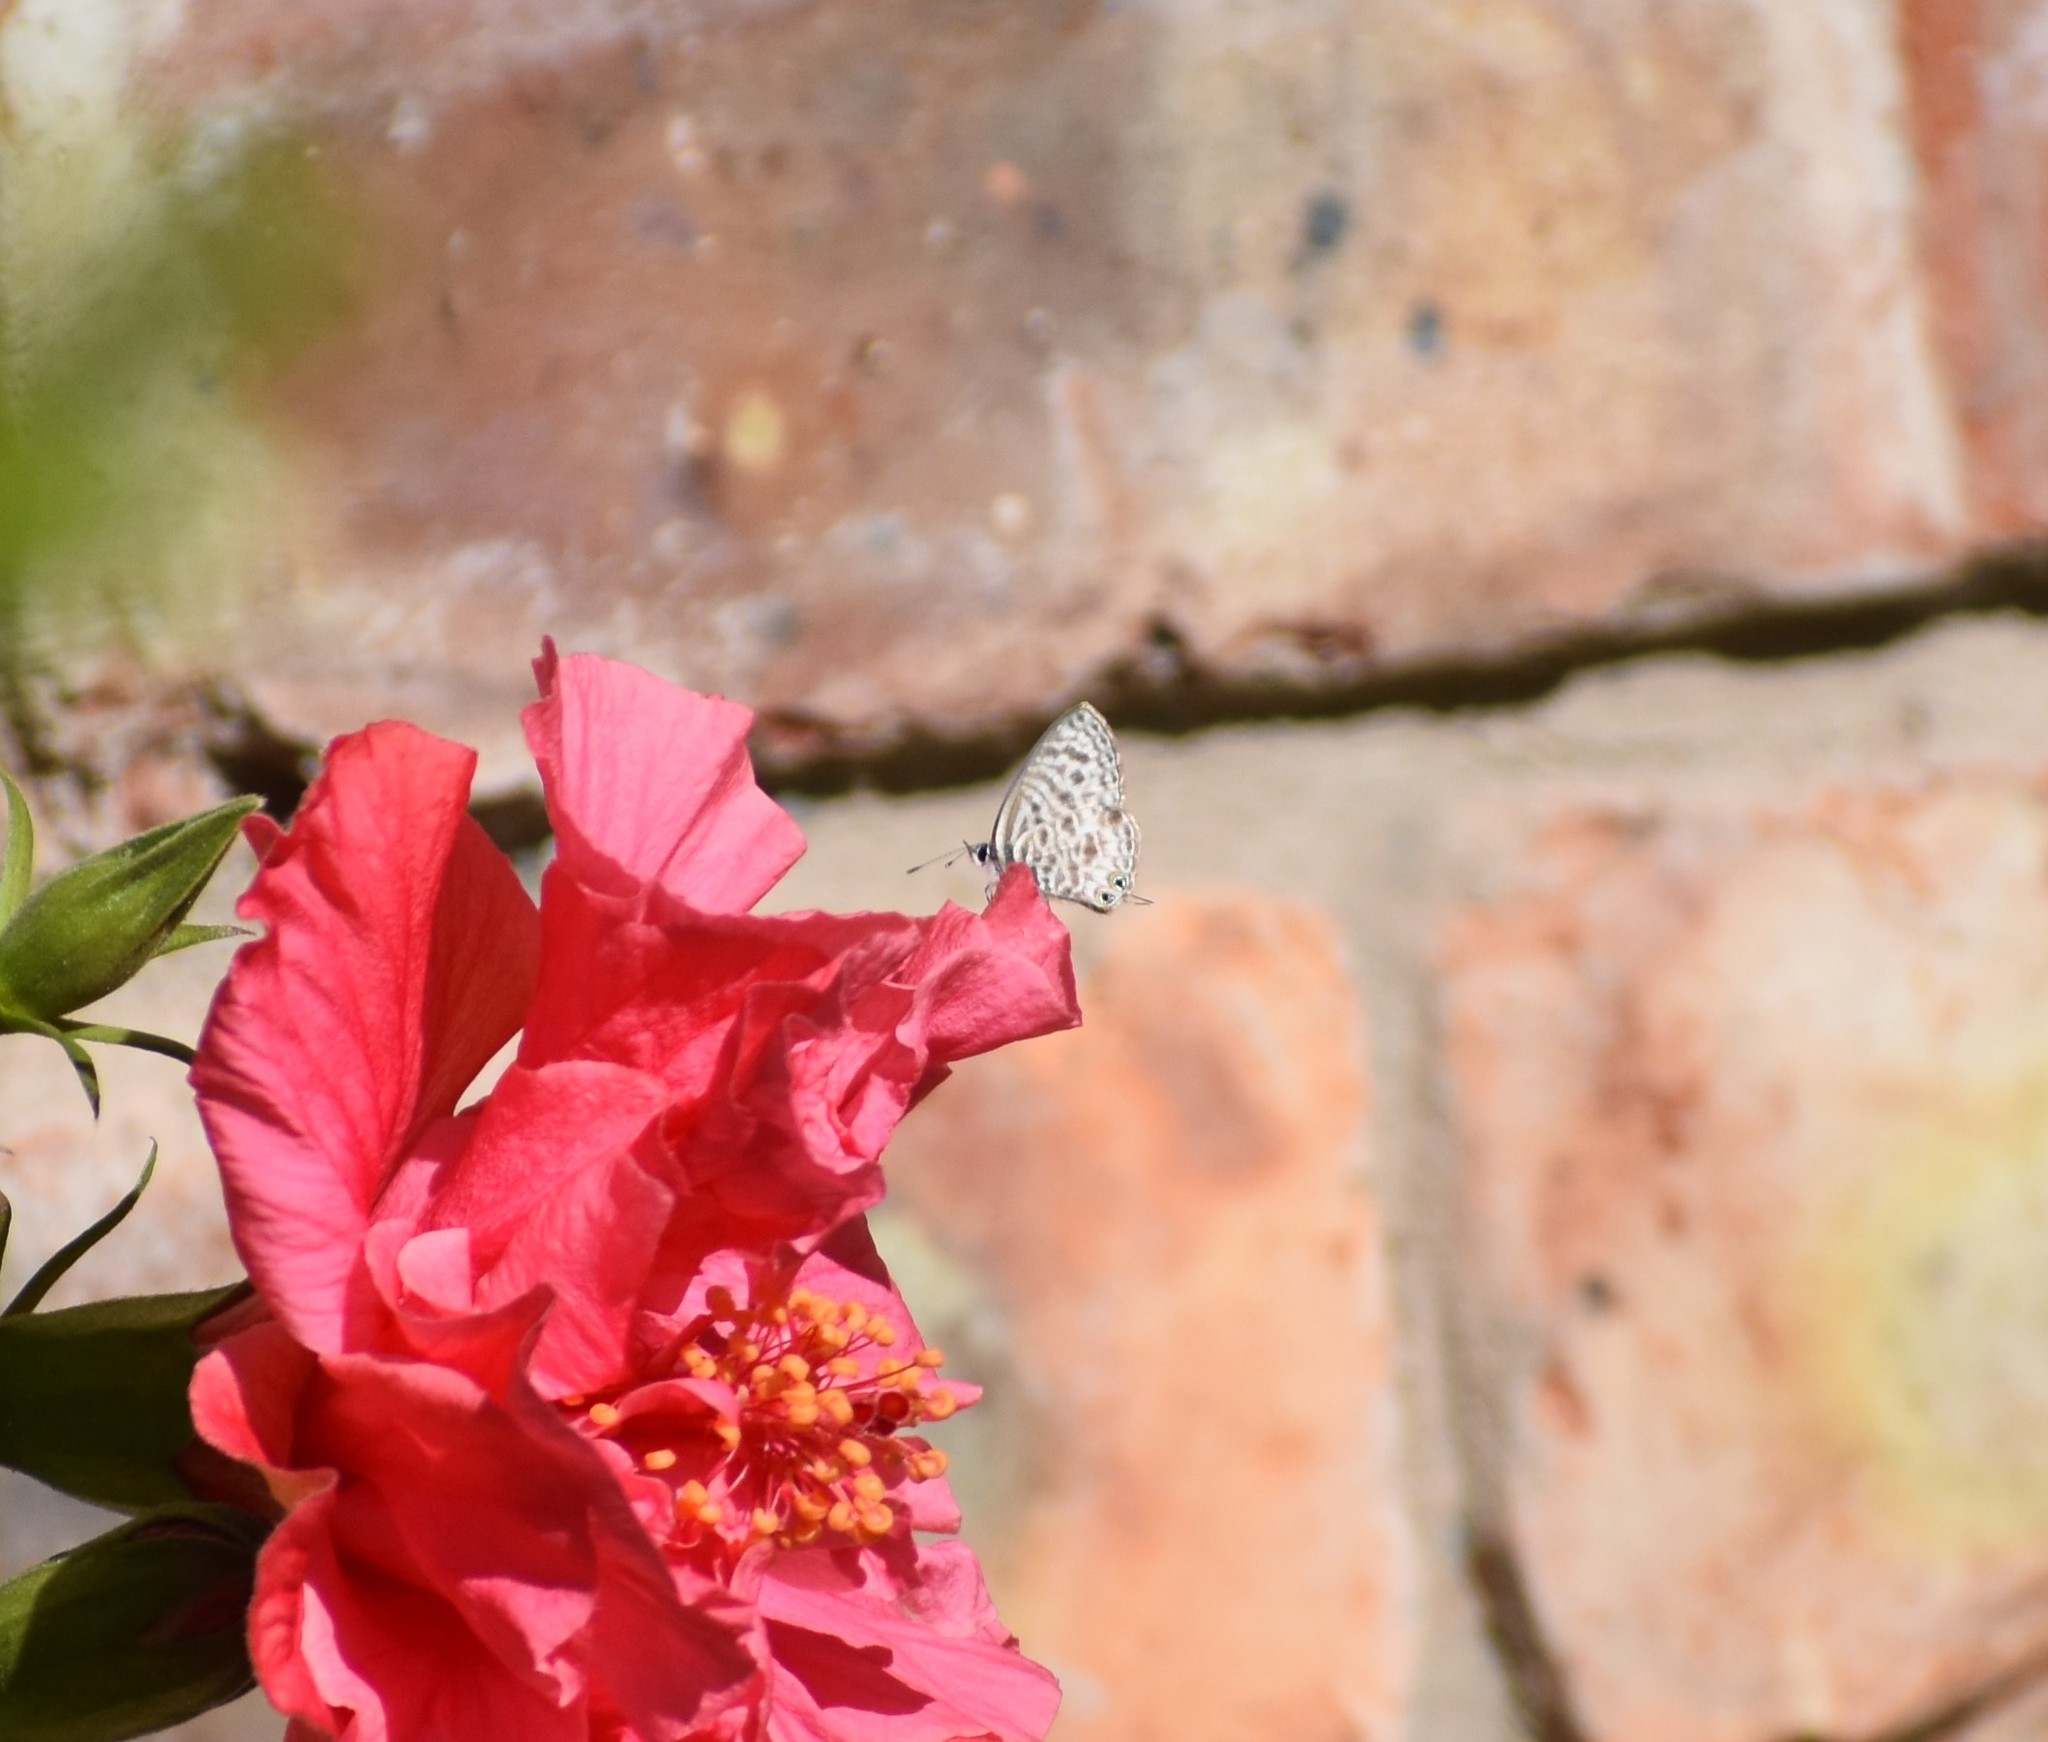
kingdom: Animalia
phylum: Arthropoda
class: Insecta
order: Lepidoptera
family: Lycaenidae
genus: Leptotes
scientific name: Leptotes
